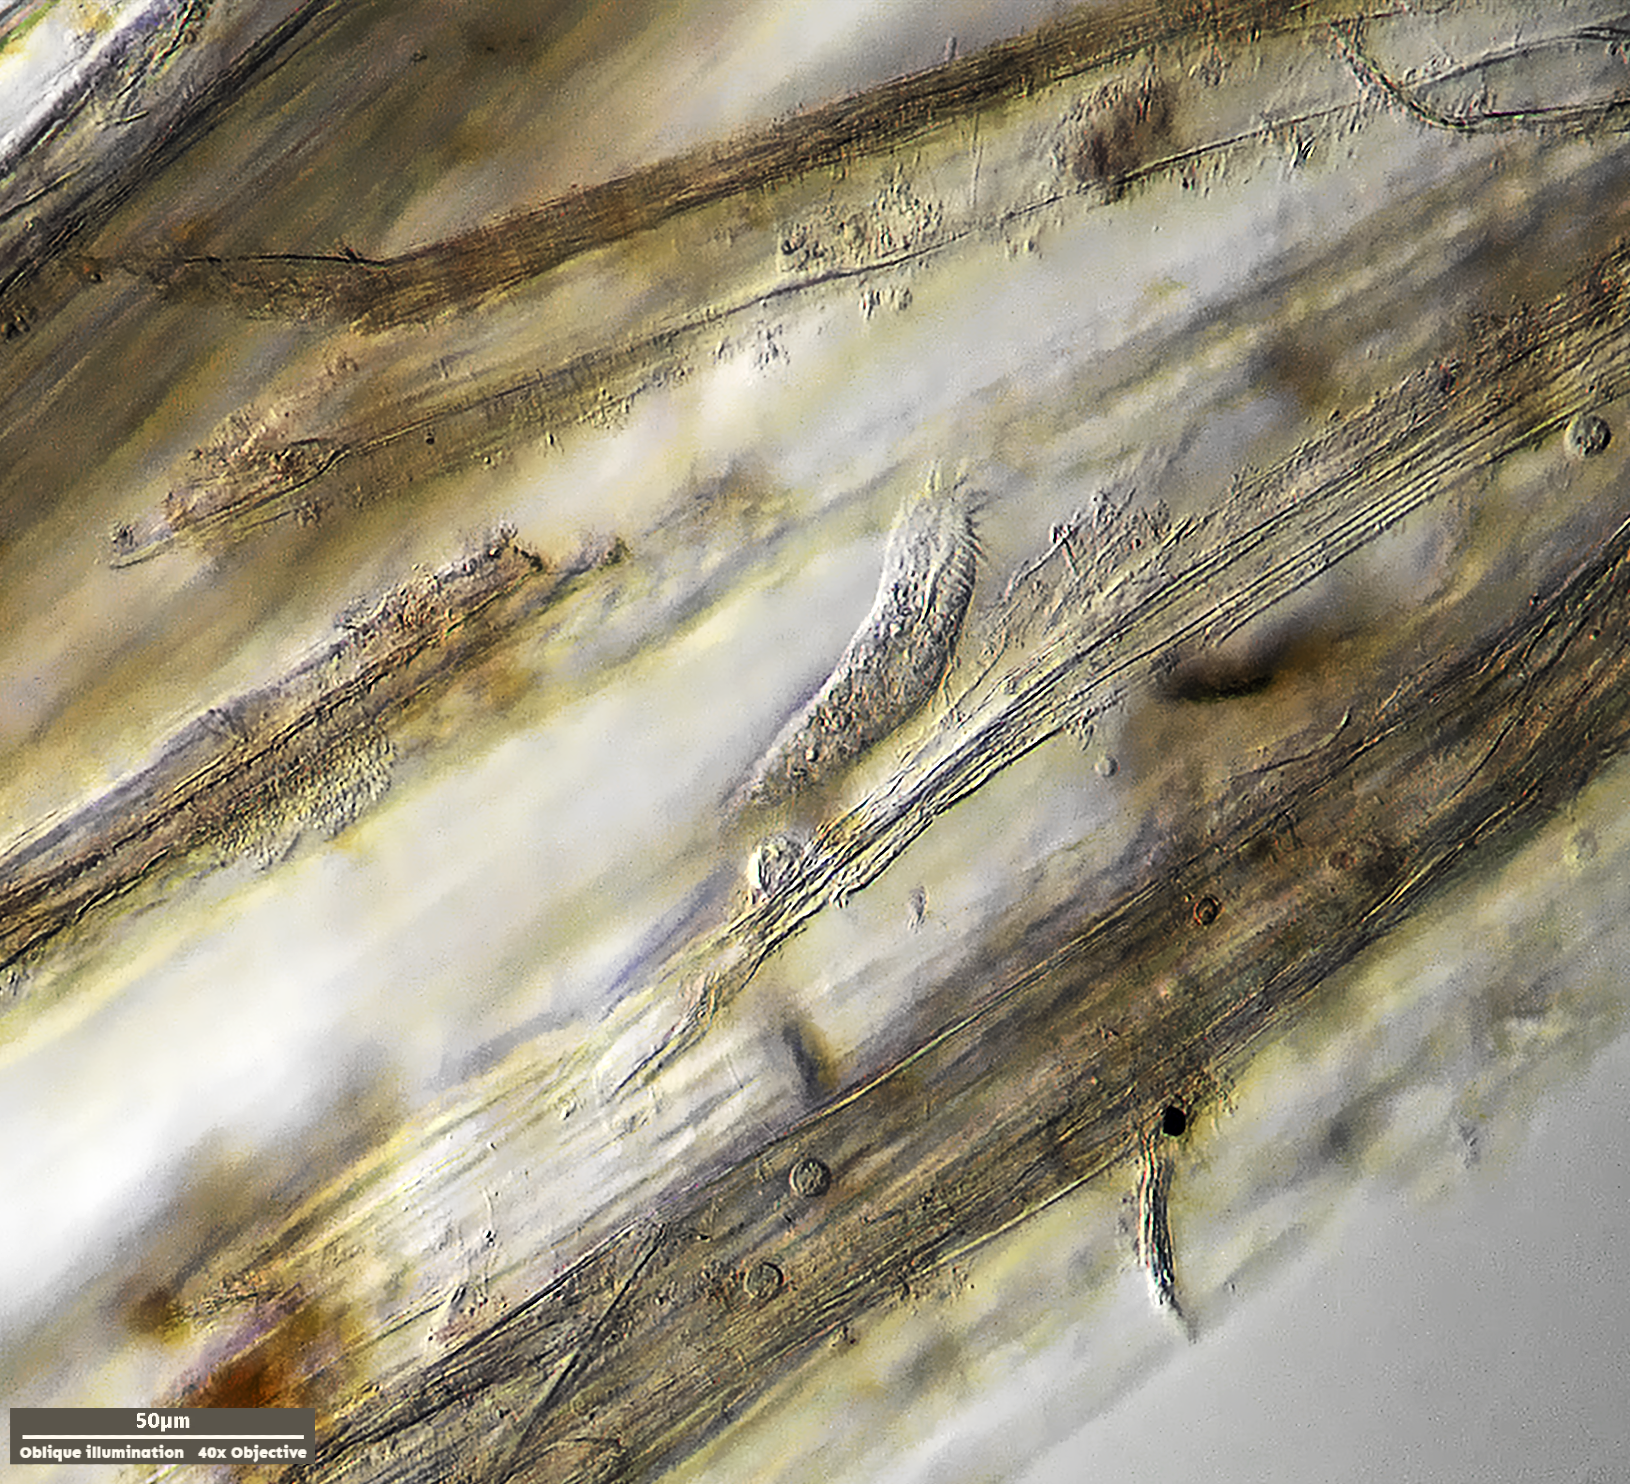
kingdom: Chromista
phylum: Ciliophora
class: Hypotrichea
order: Oxytrichida
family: Oxytrichidae
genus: Tachysoma
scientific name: Tachysoma pellionellum
